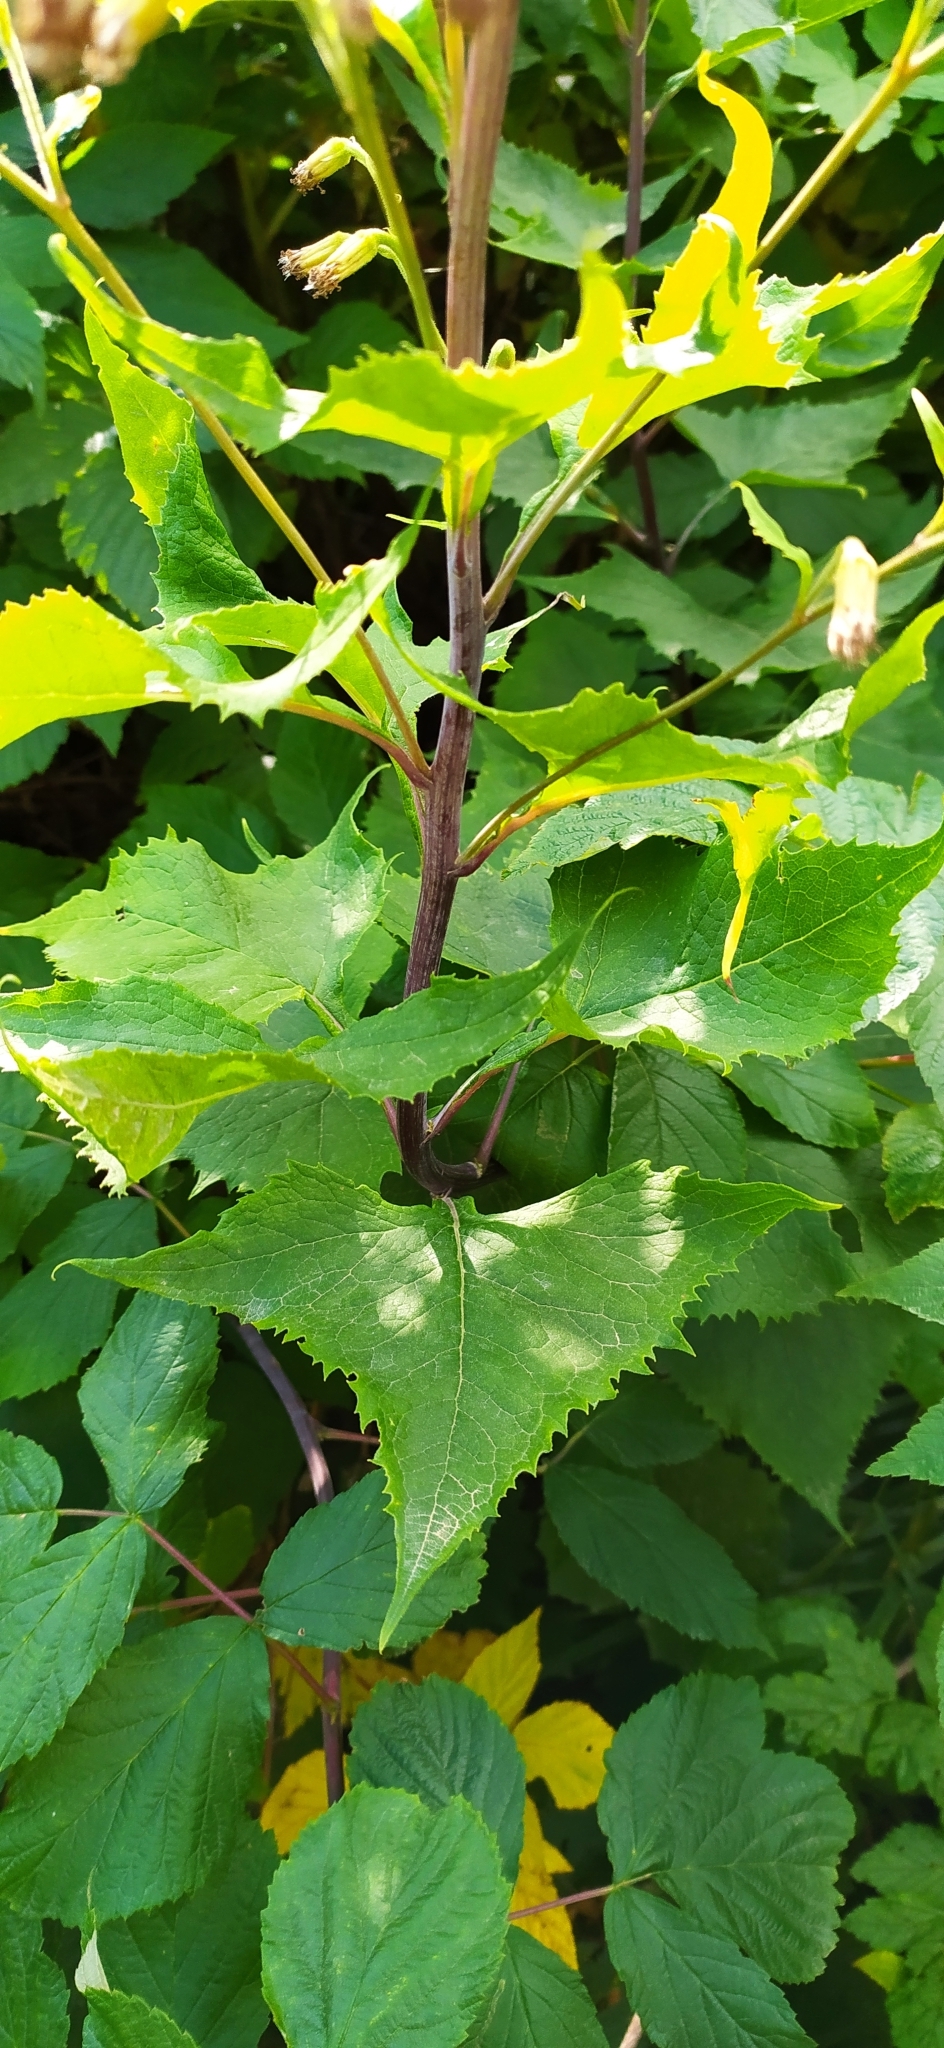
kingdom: Plantae
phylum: Tracheophyta
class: Magnoliopsida
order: Asterales
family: Asteraceae
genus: Parasenecio
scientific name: Parasenecio hastatus
